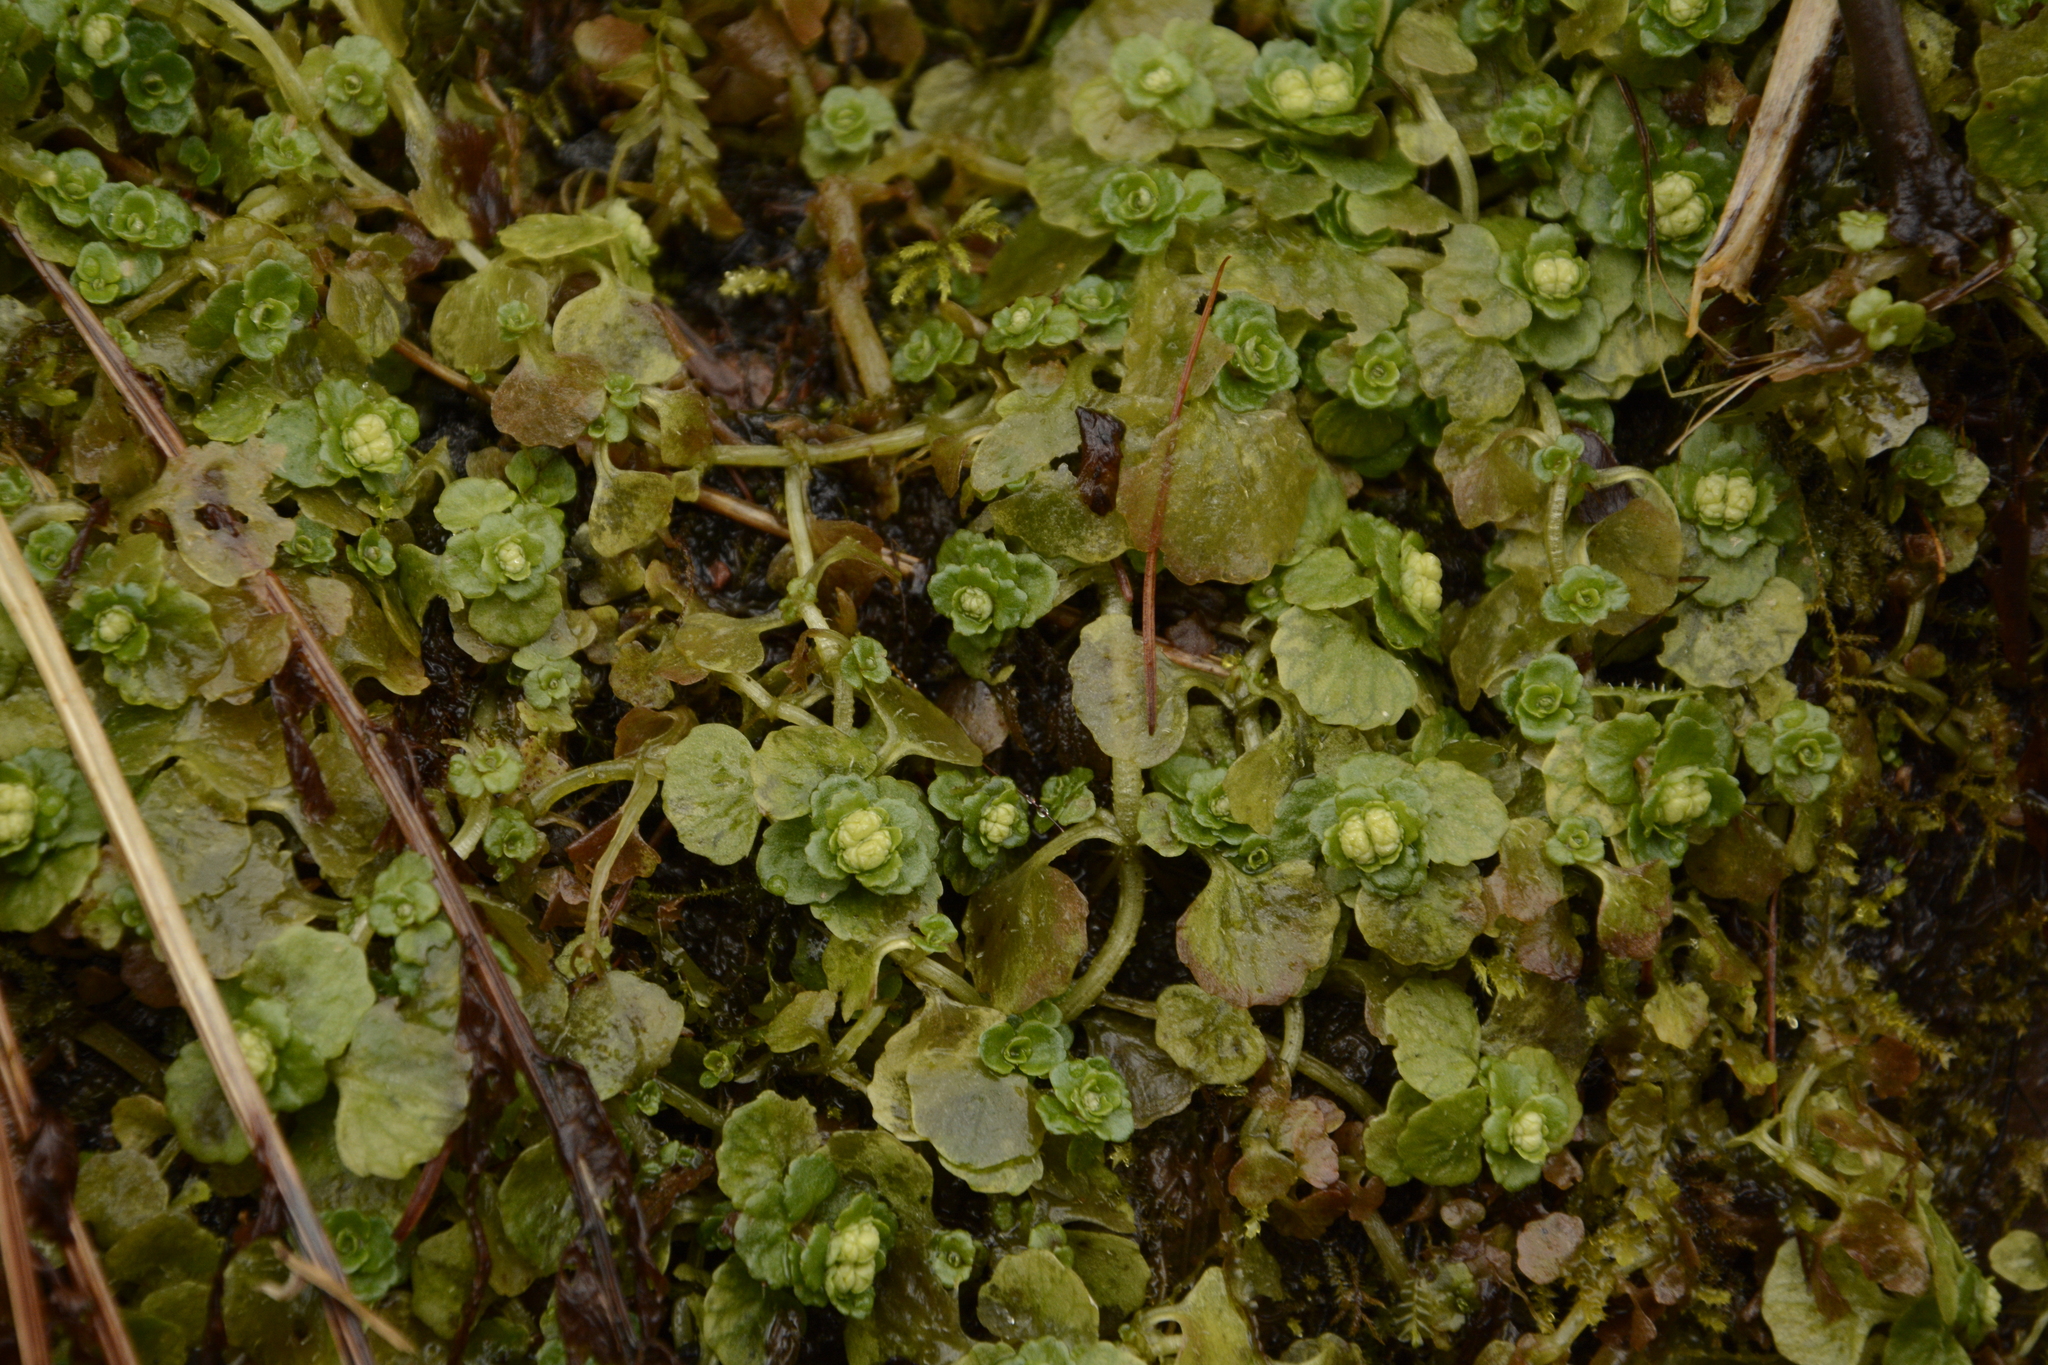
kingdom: Plantae
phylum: Tracheophyta
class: Magnoliopsida
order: Saxifragales
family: Saxifragaceae
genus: Chrysosplenium
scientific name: Chrysosplenium oppositifolium
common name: Opposite-leaved golden-saxifrage
